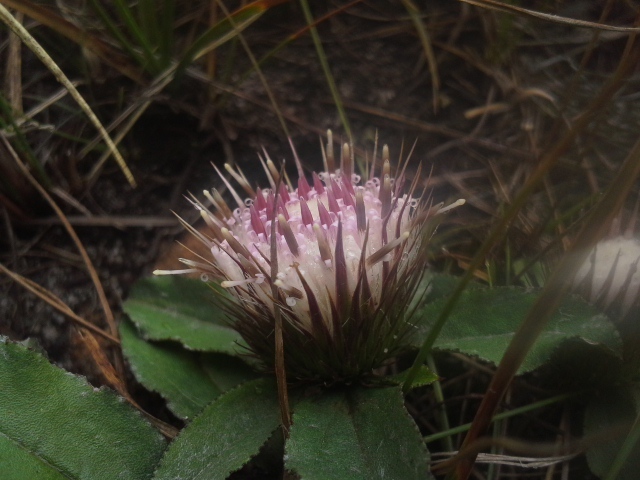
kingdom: Plantae
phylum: Tracheophyta
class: Magnoliopsida
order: Asterales
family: Asteraceae
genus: Dicoma
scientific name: Dicoma prostrata
